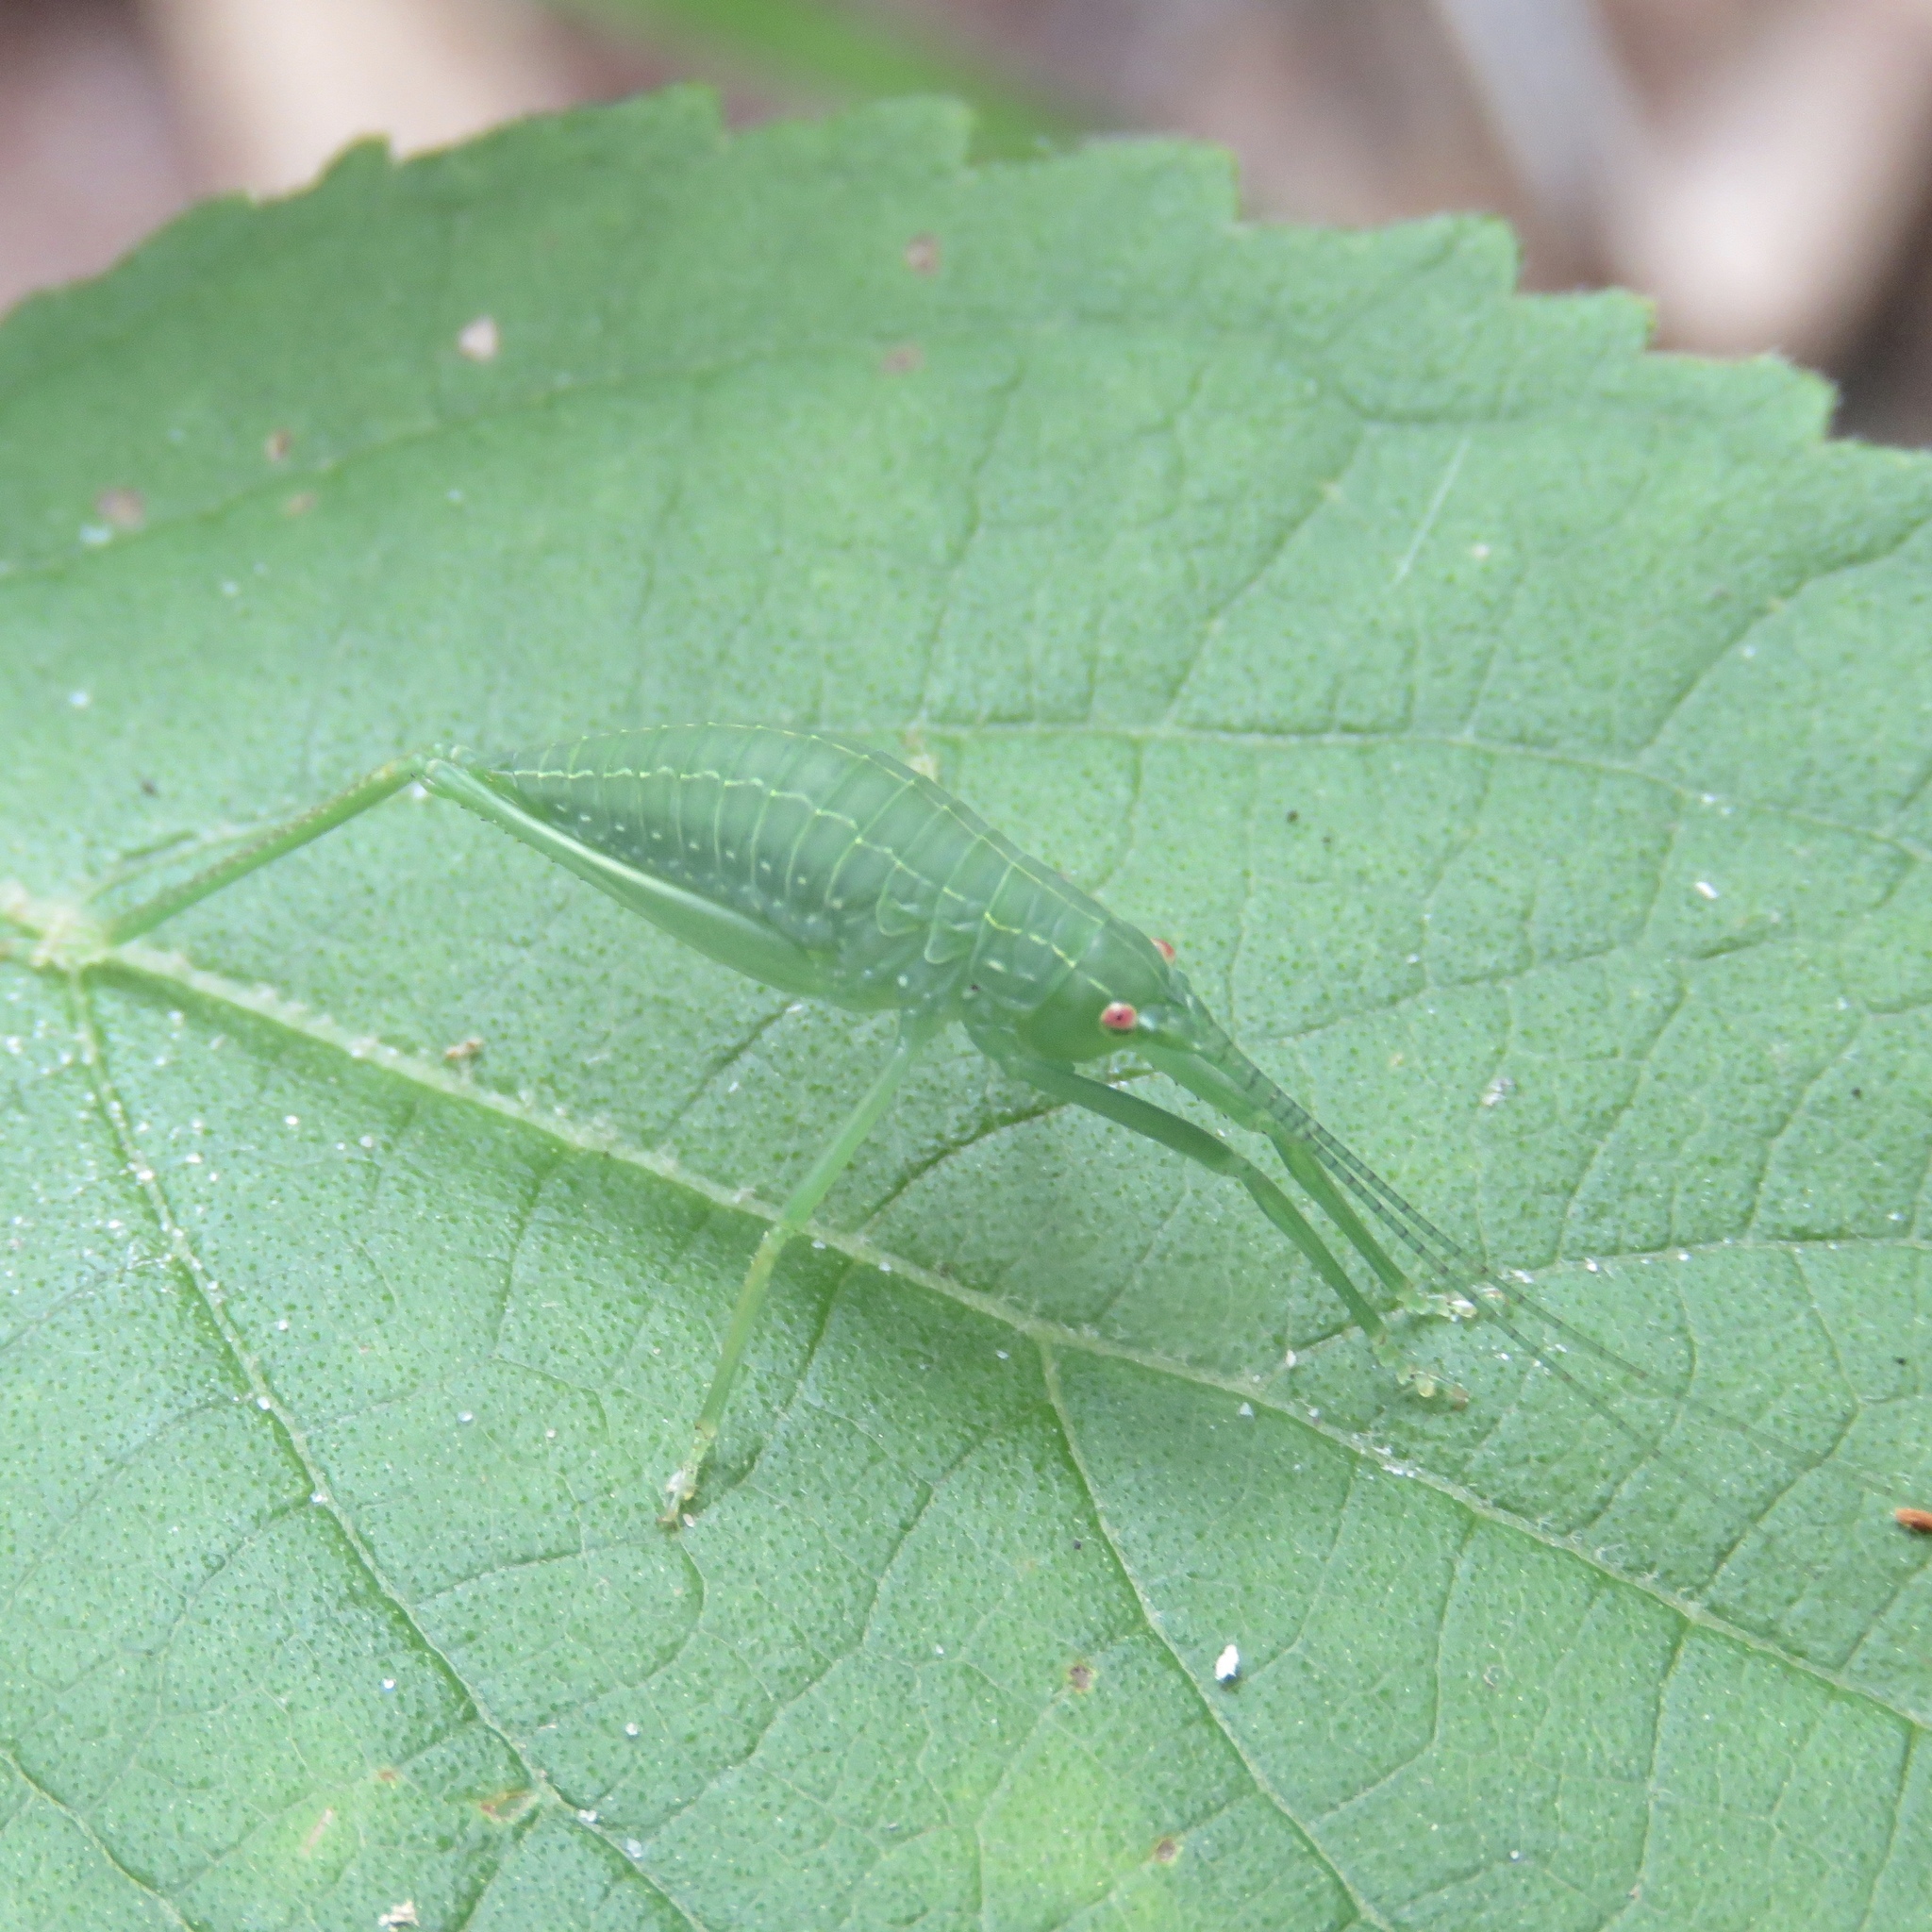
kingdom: Animalia
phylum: Arthropoda
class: Insecta
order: Orthoptera
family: Tettigoniidae
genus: Pterophylla
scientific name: Pterophylla camellifolia
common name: Common true katydid
